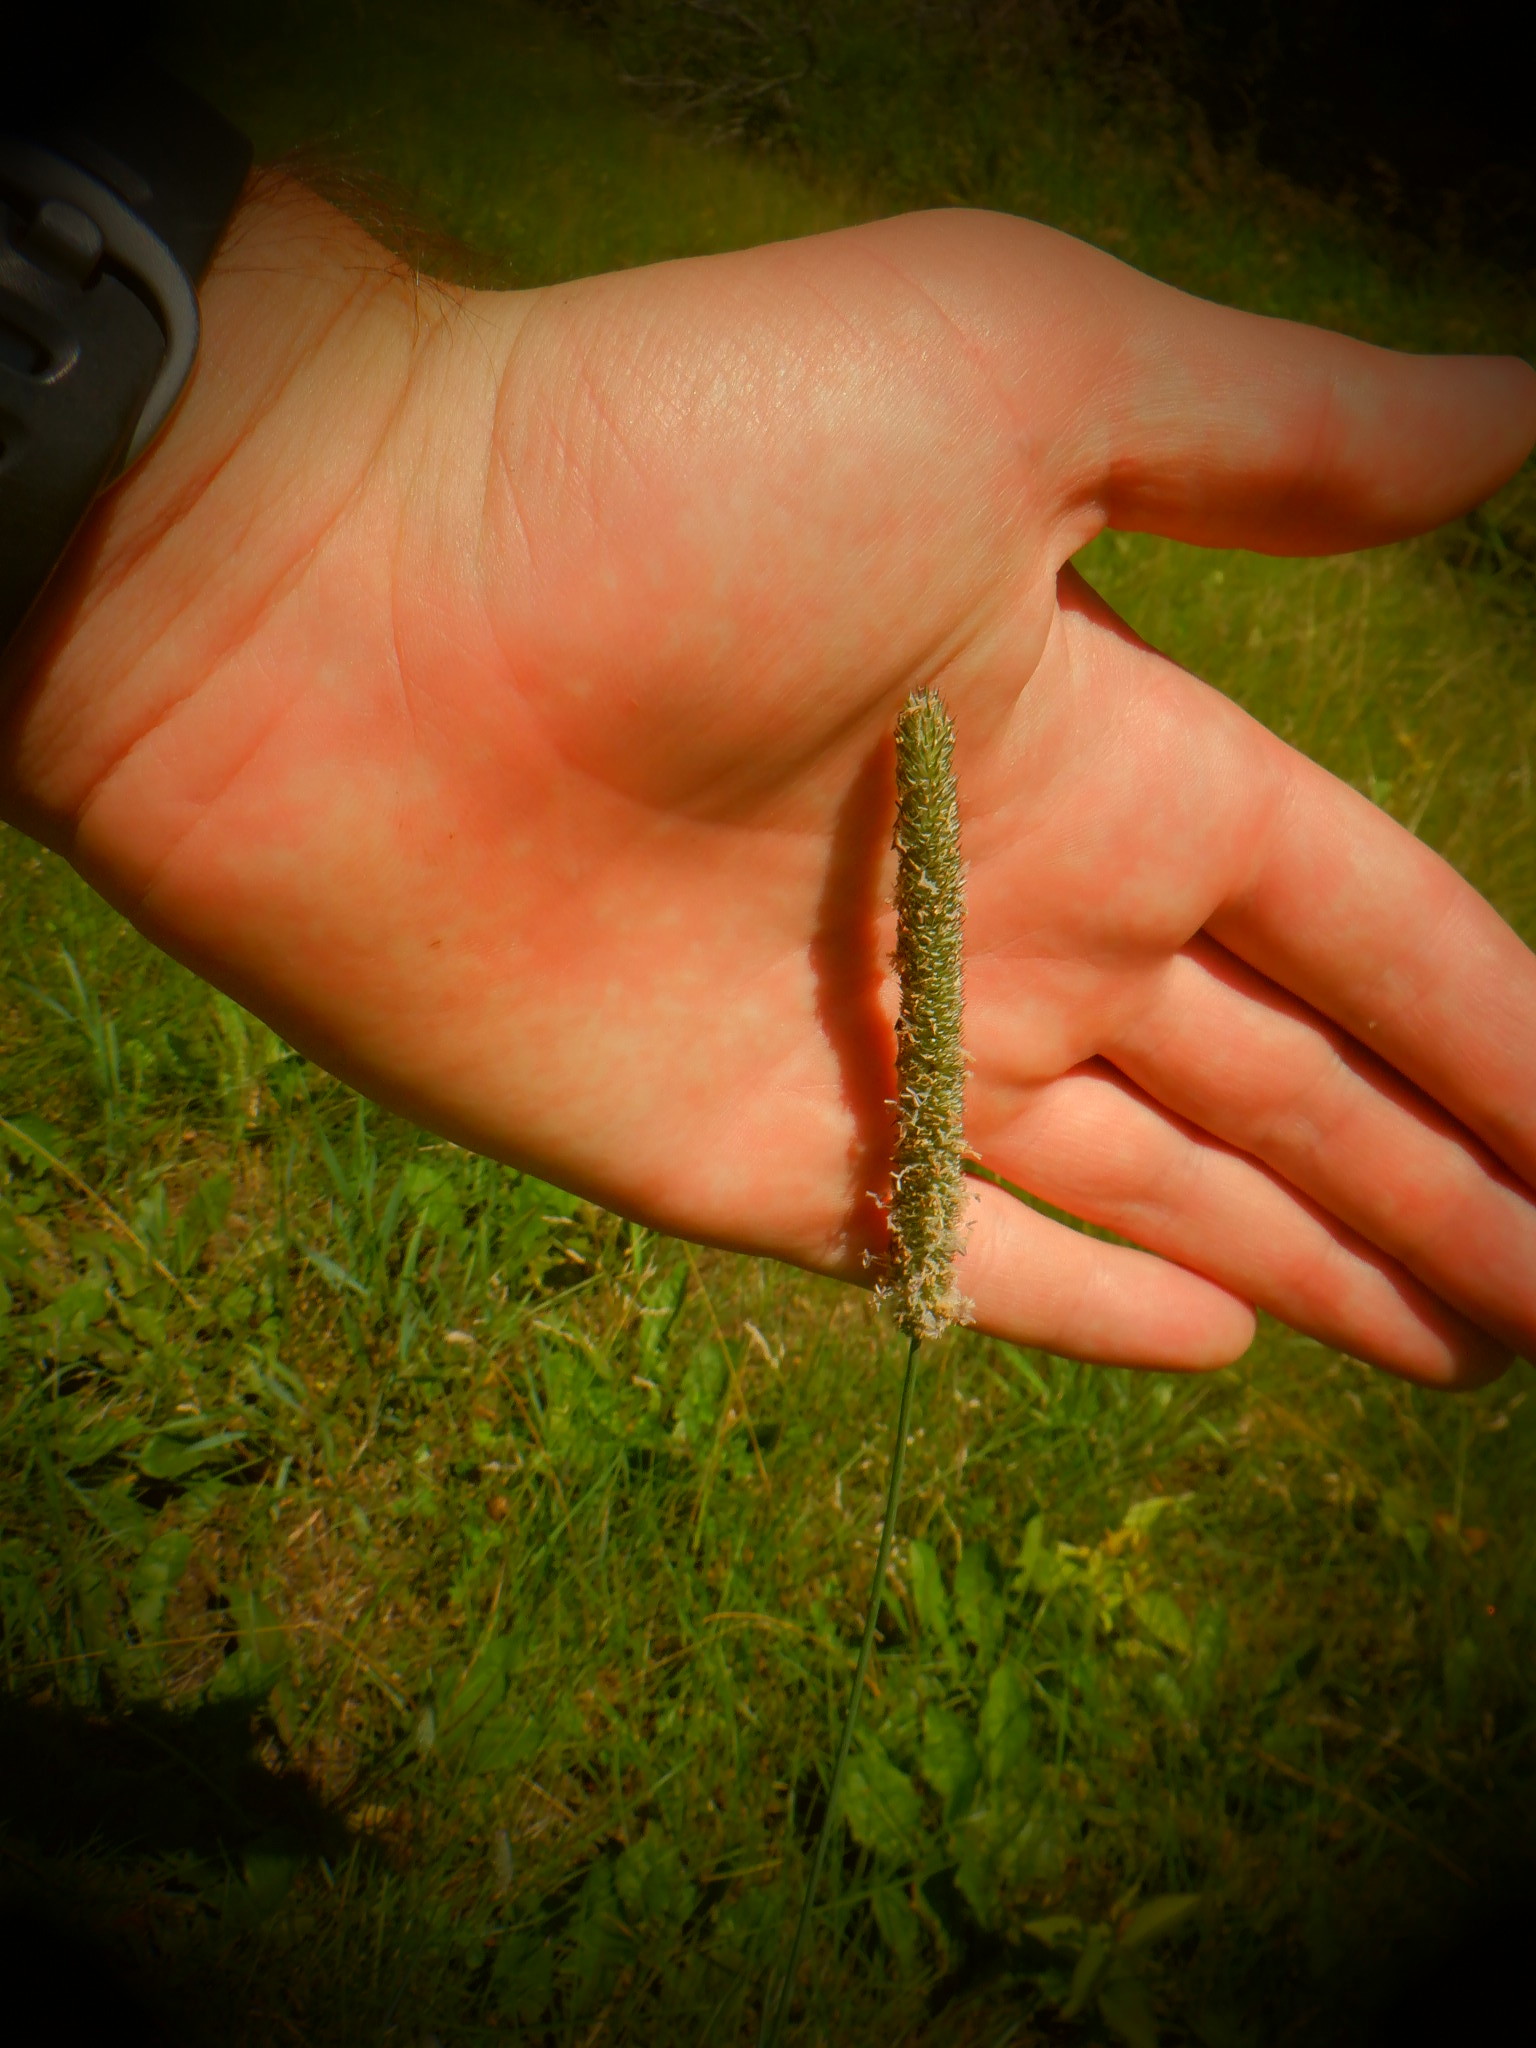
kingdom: Plantae
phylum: Tracheophyta
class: Liliopsida
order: Poales
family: Poaceae
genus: Phleum
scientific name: Phleum pratense
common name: Timothy grass
